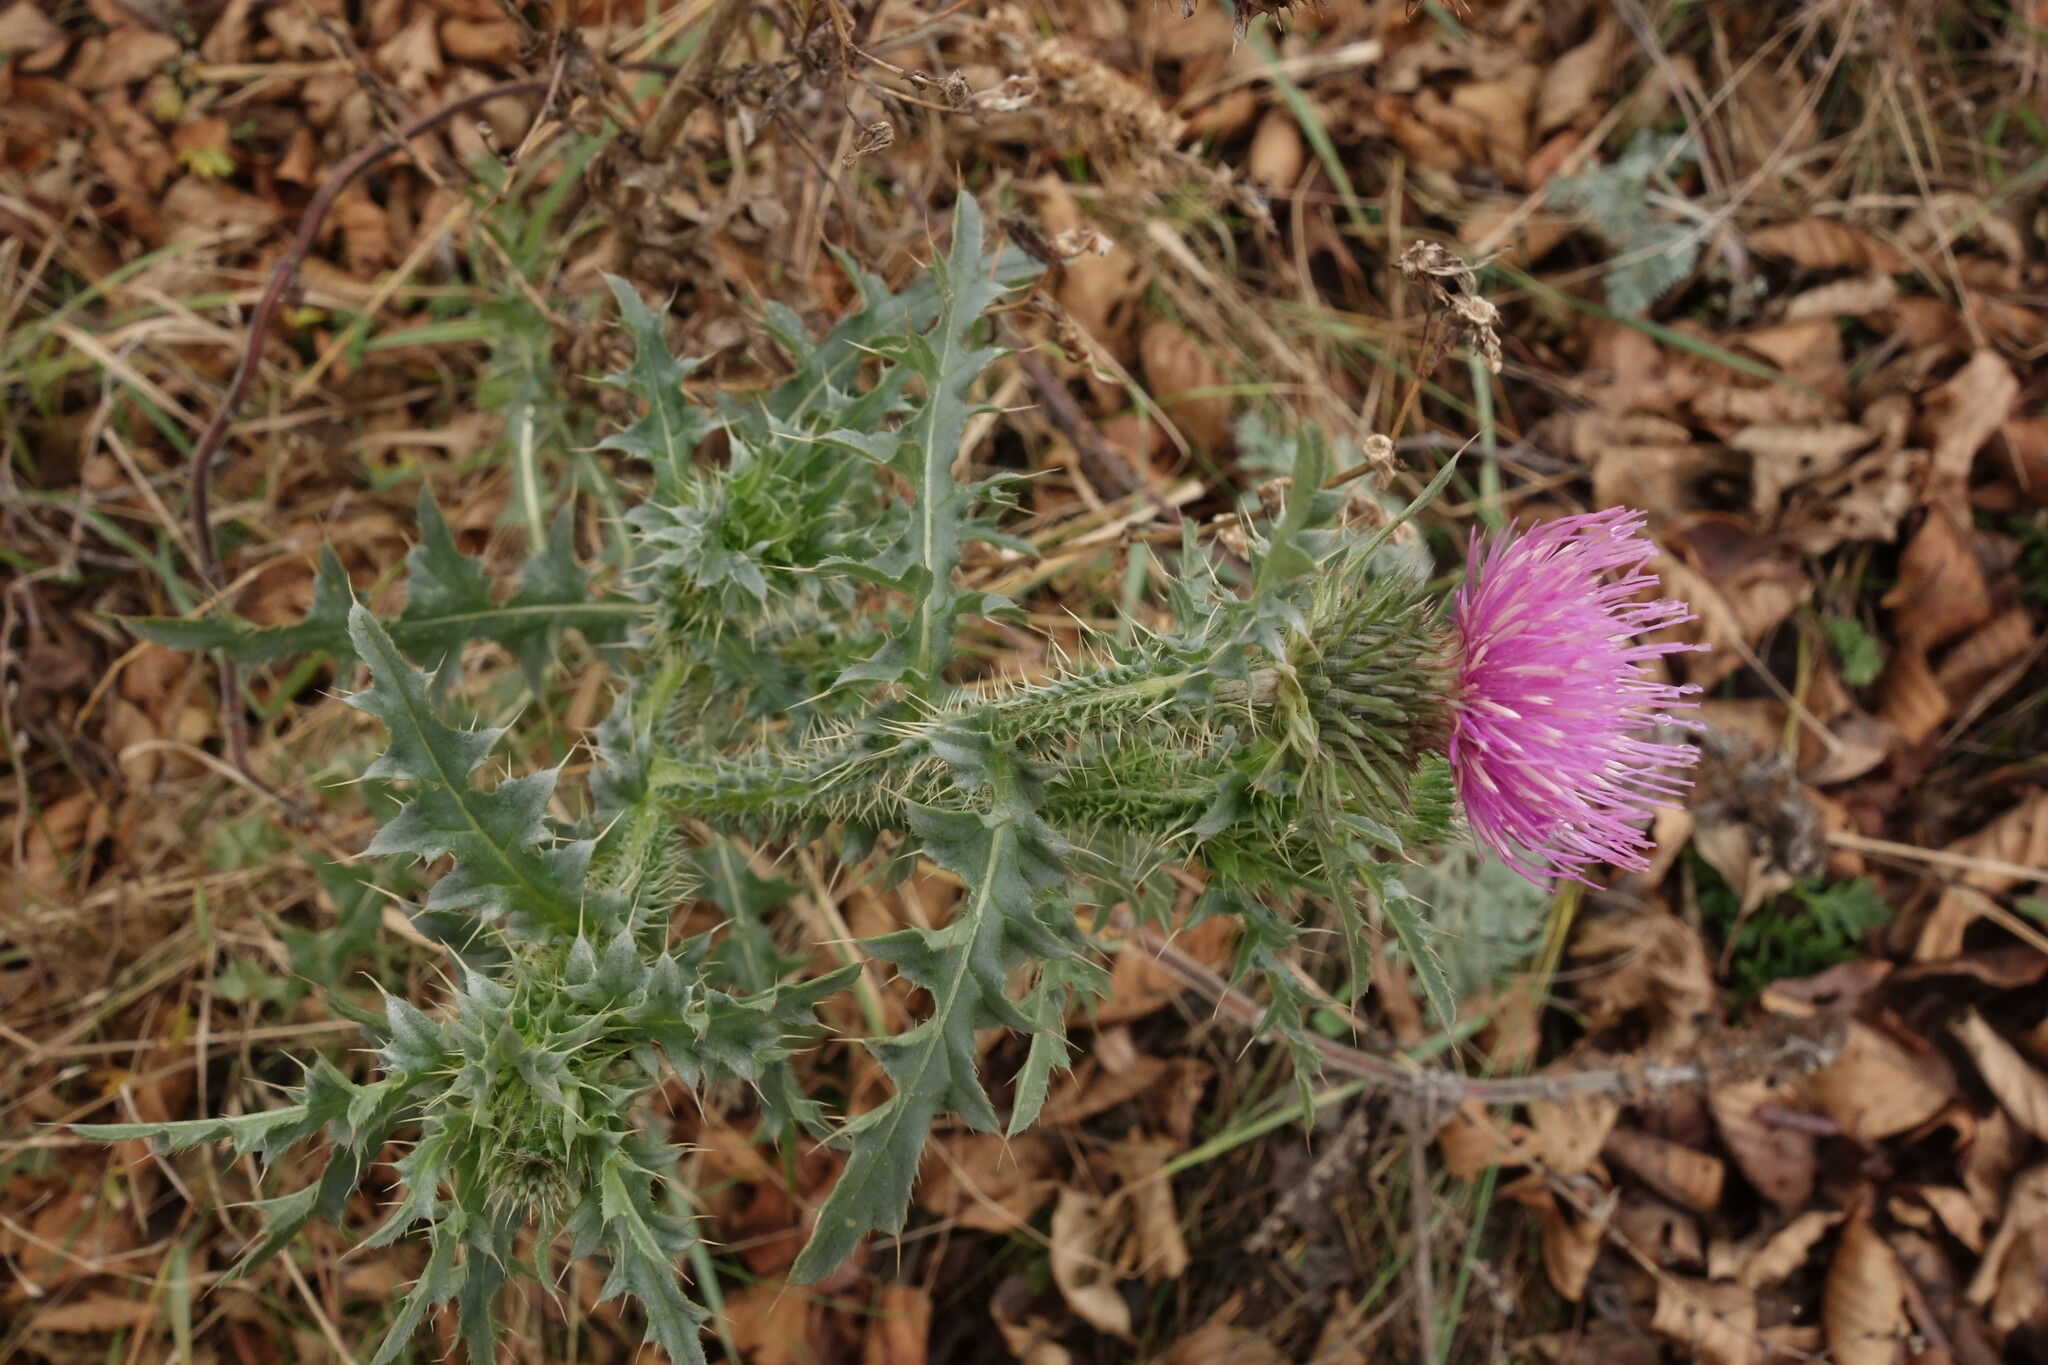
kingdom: Plantae
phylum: Tracheophyta
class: Magnoliopsida
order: Asterales
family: Asteraceae
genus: Carduus
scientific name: Carduus acanthoides
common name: Plumeless thistle
